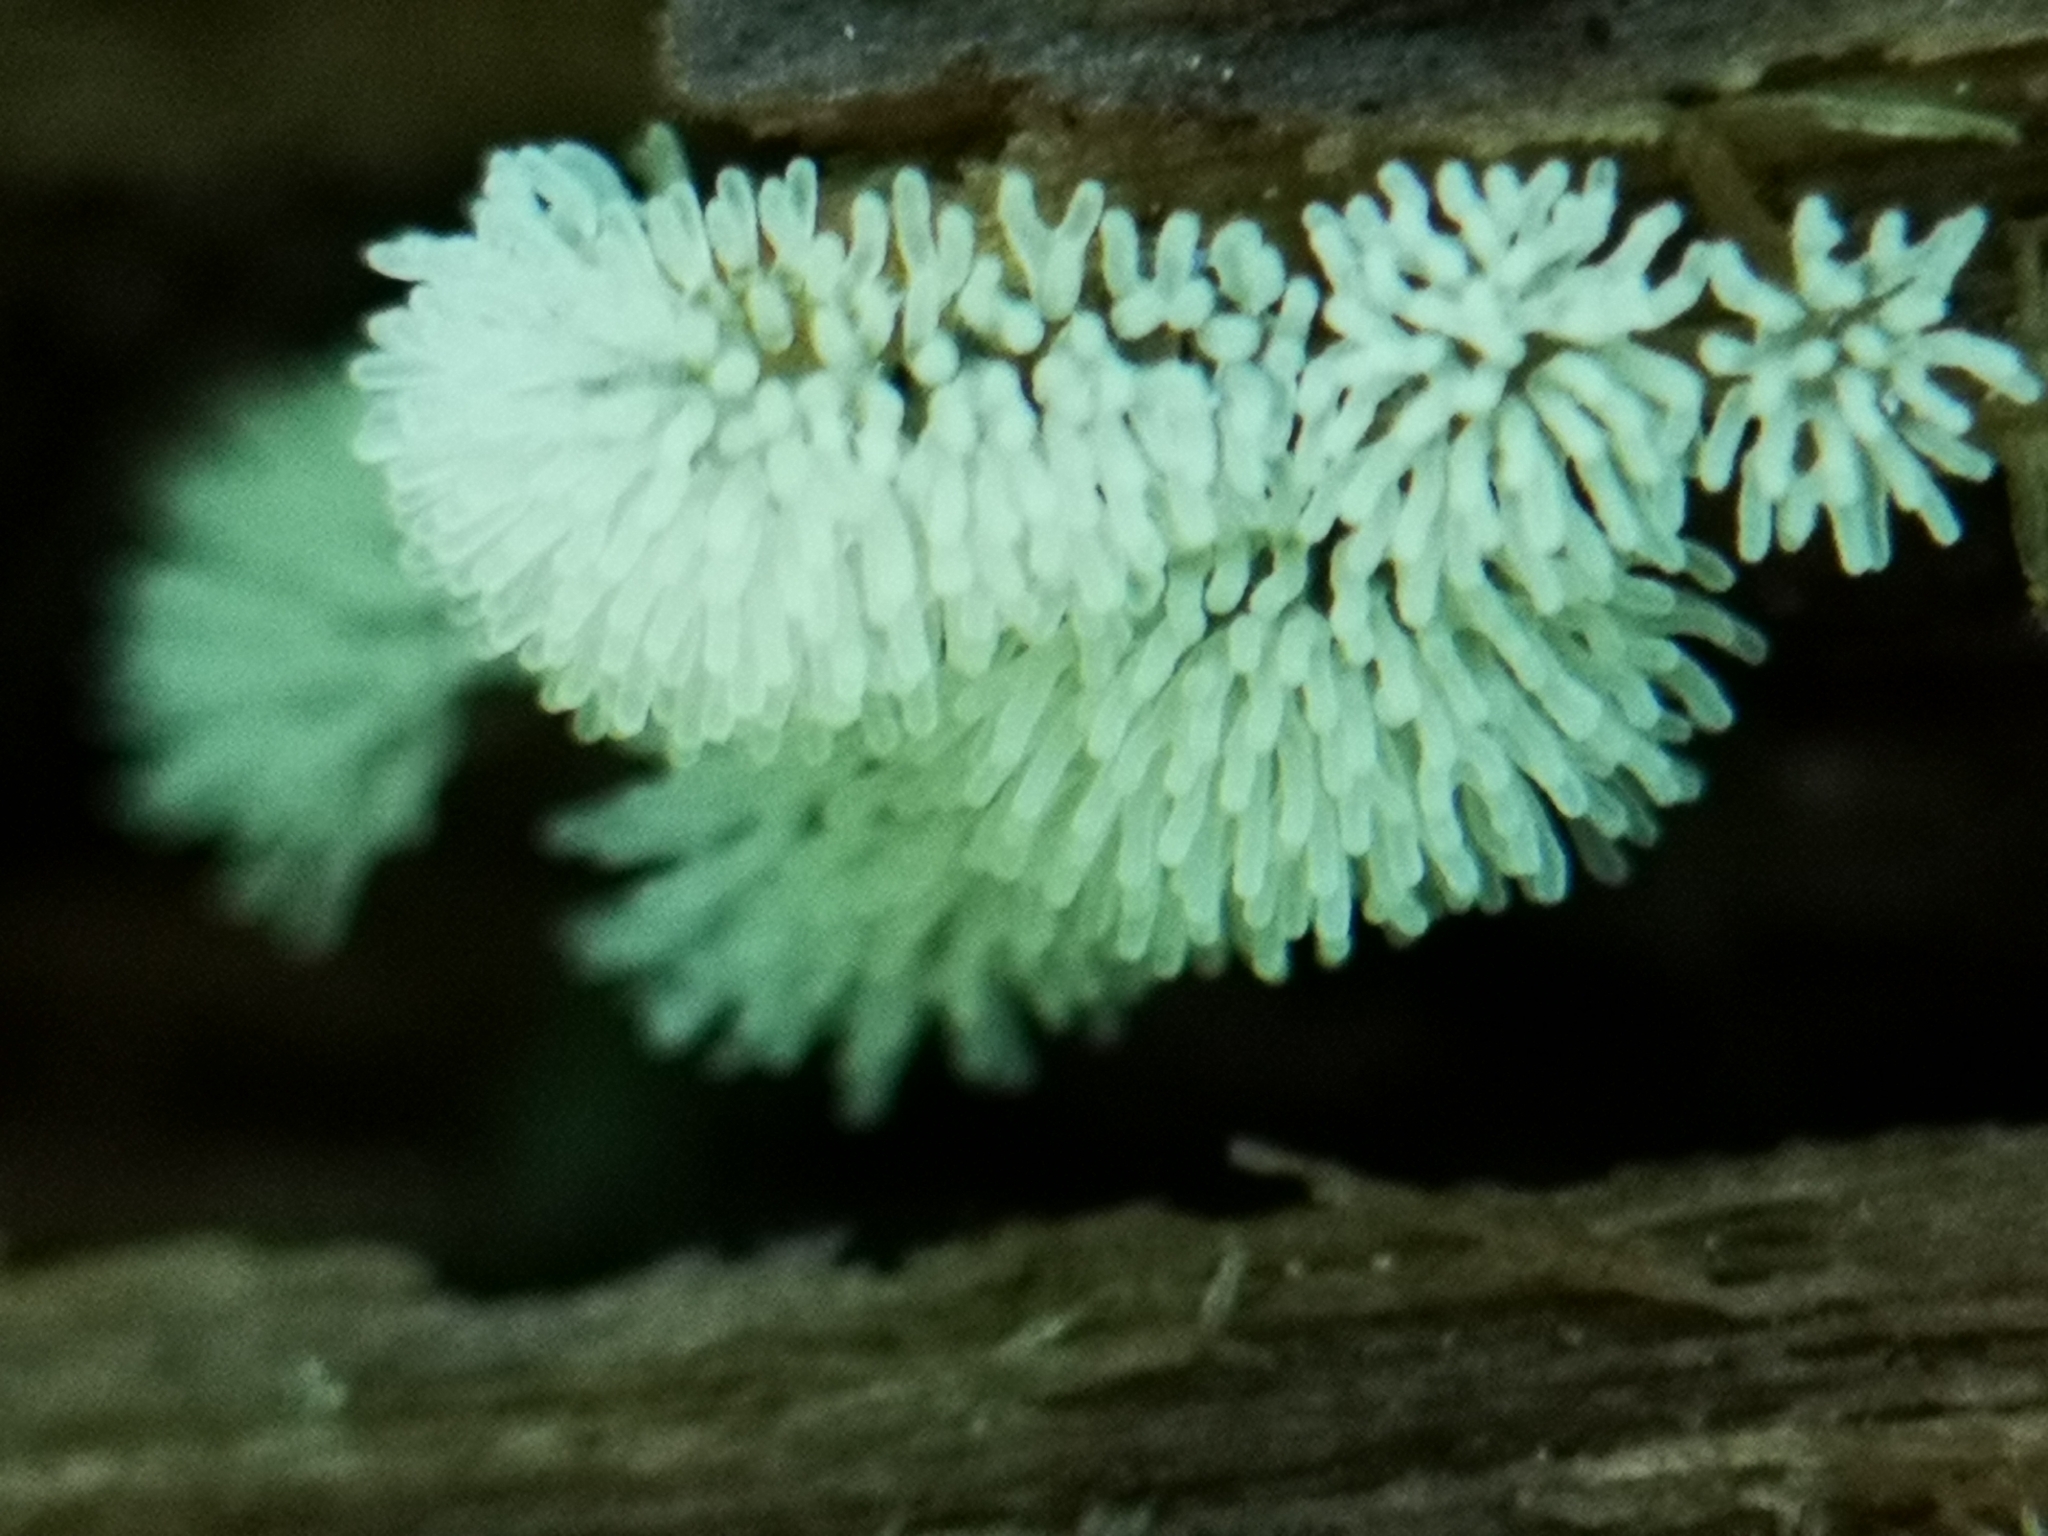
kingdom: Protozoa
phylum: Mycetozoa
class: Protosteliomycetes
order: Ceratiomyxales
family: Ceratiomyxaceae
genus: Ceratiomyxa
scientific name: Ceratiomyxa fruticulosa
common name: Honeycomb coral slime mold
